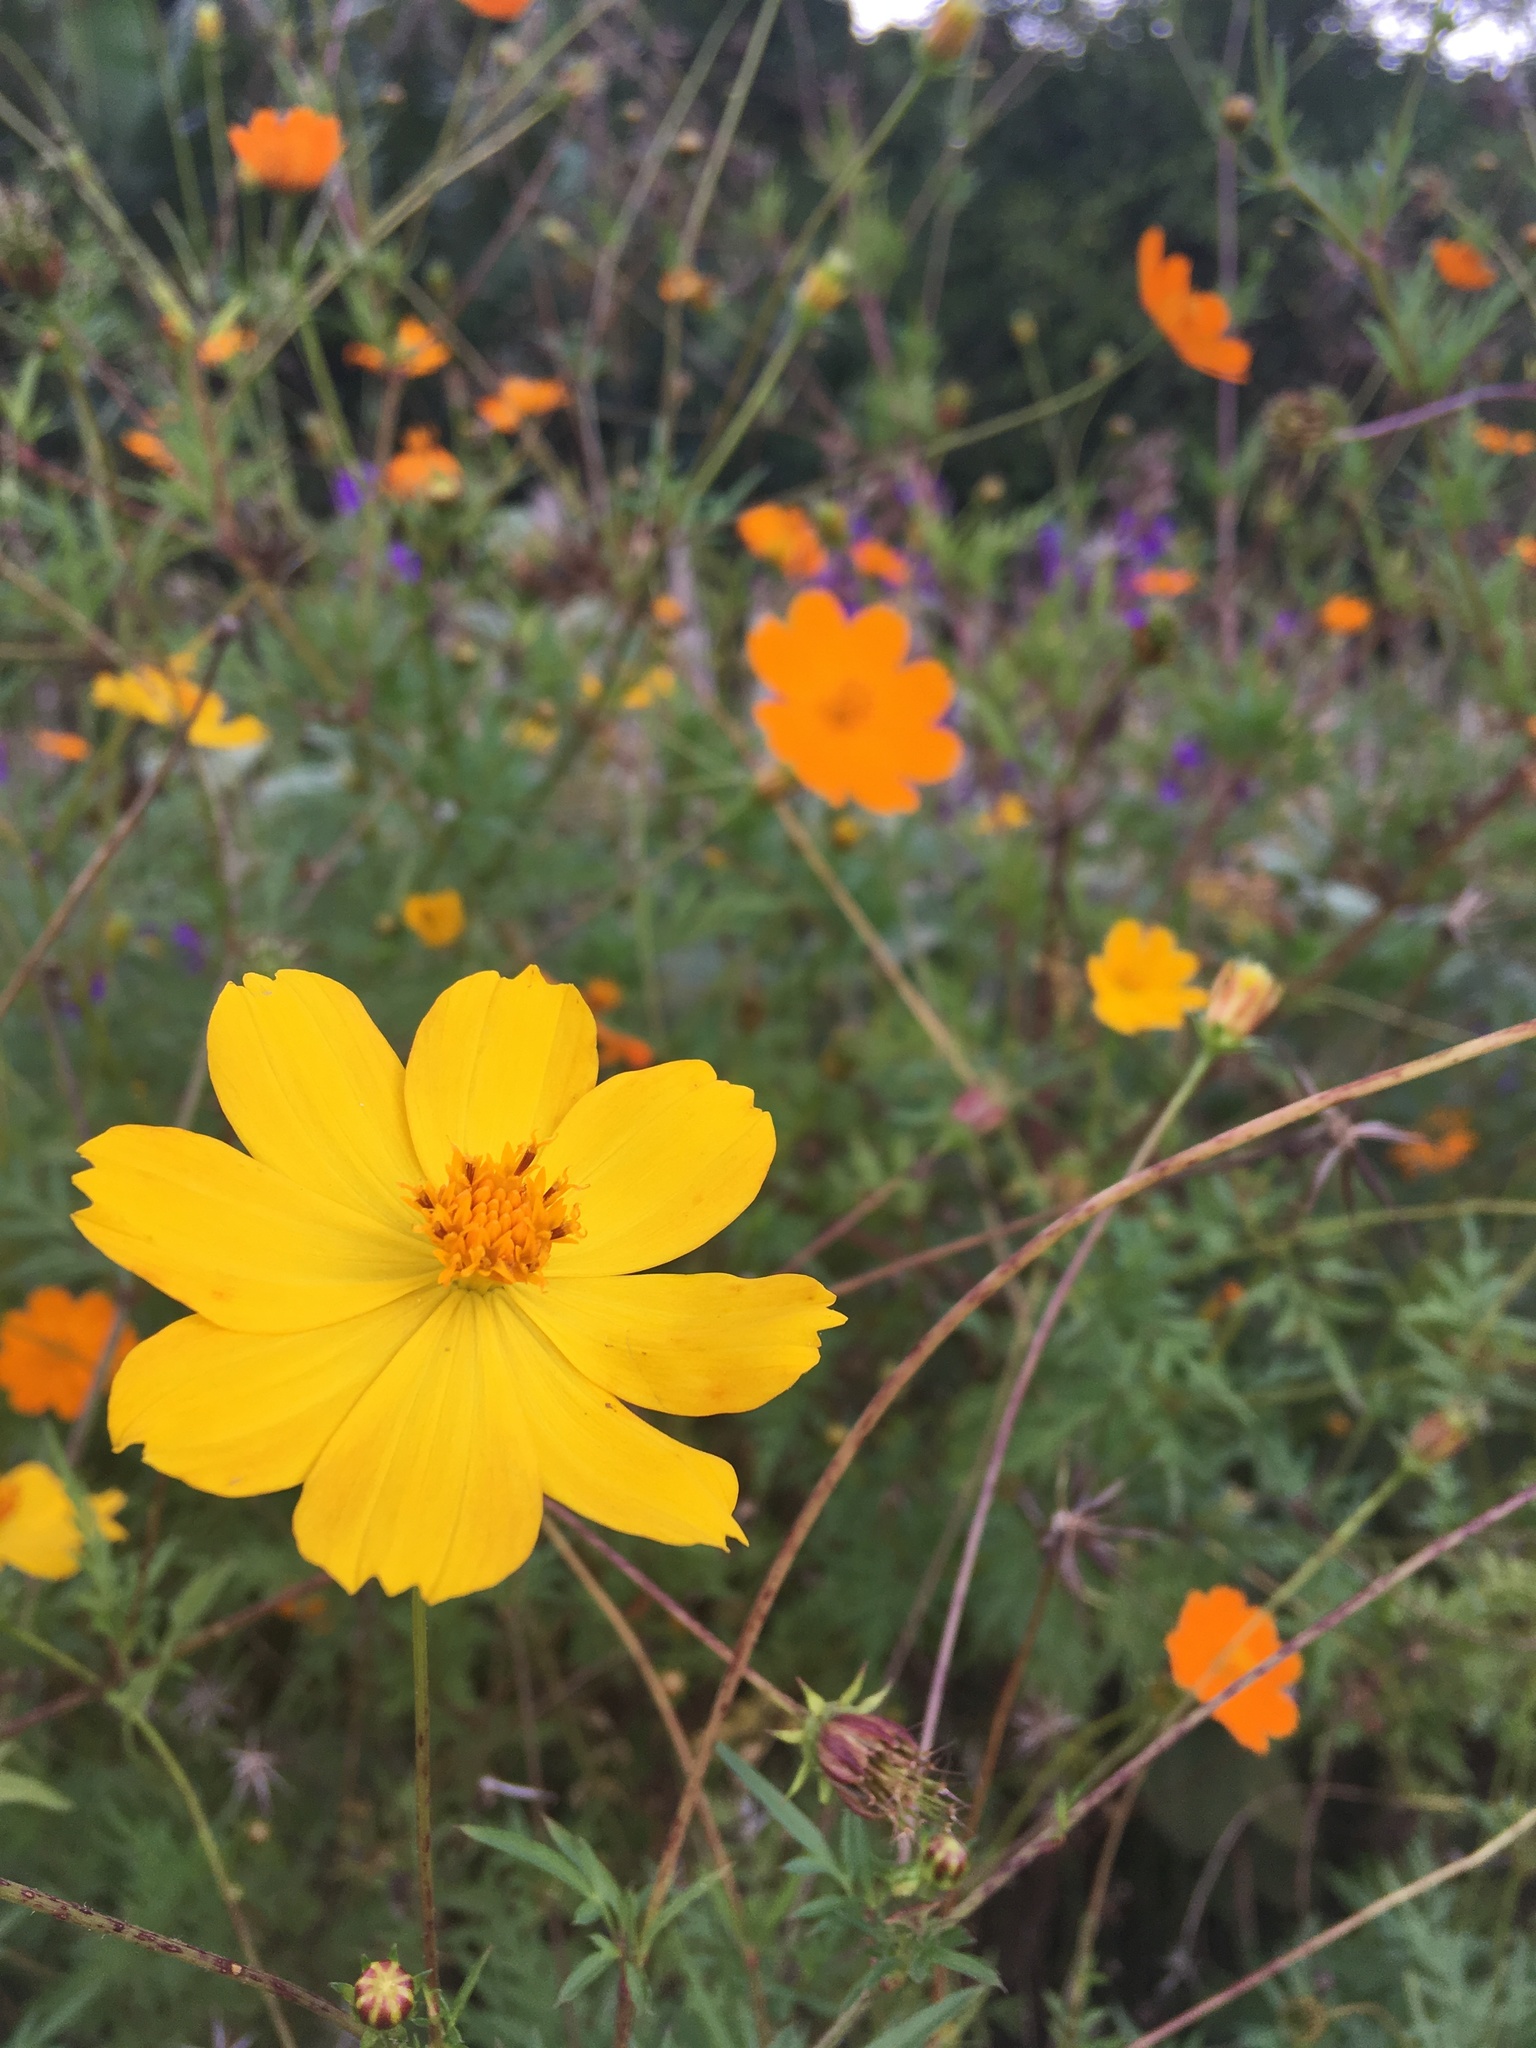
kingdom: Plantae
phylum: Tracheophyta
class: Magnoliopsida
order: Asterales
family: Asteraceae
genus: Cosmos
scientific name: Cosmos sulphureus
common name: Sulphur cosmos
